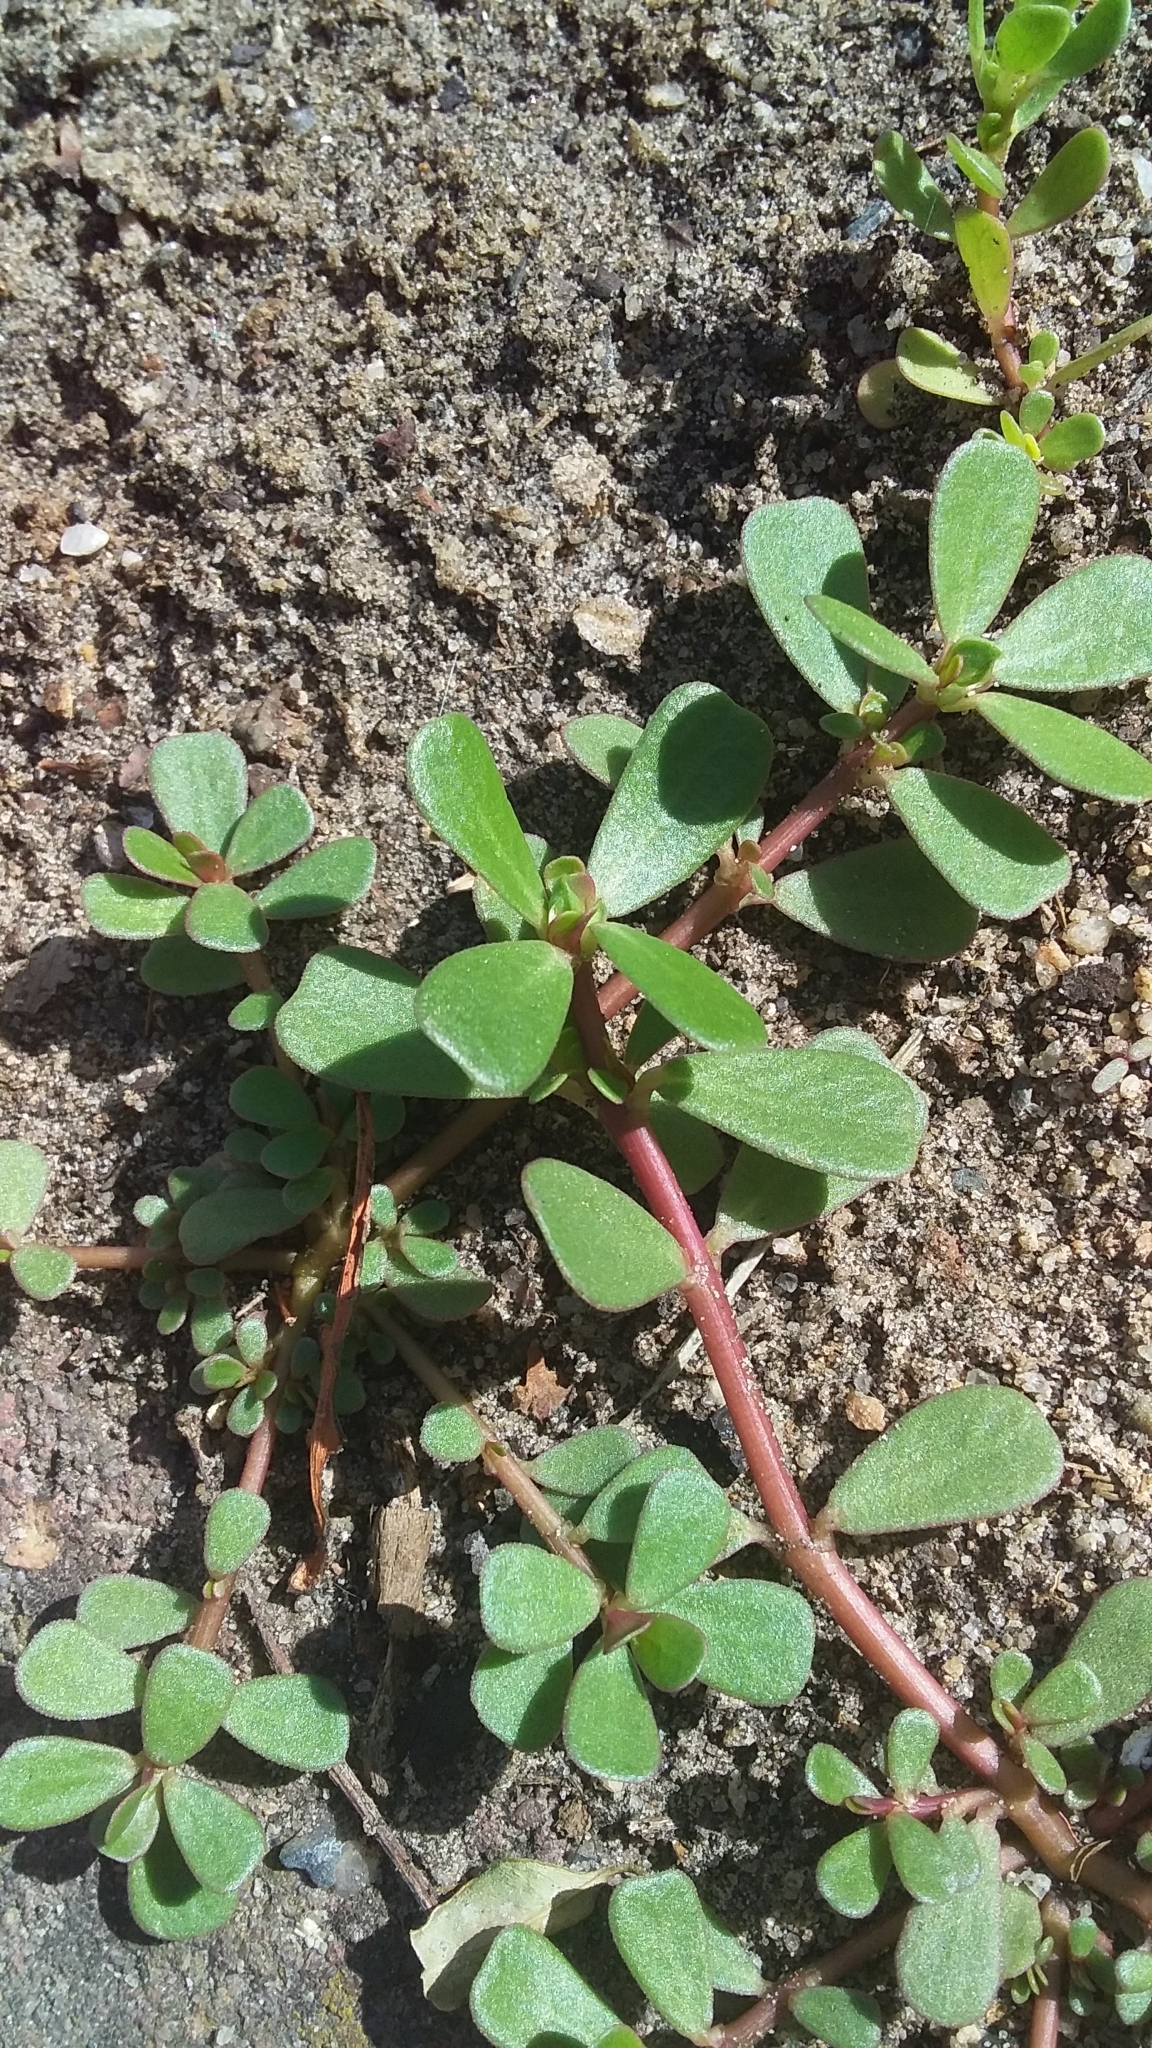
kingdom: Plantae
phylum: Tracheophyta
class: Magnoliopsida
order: Caryophyllales
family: Portulacaceae
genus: Portulaca
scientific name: Portulaca oleracea
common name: Common purslane
